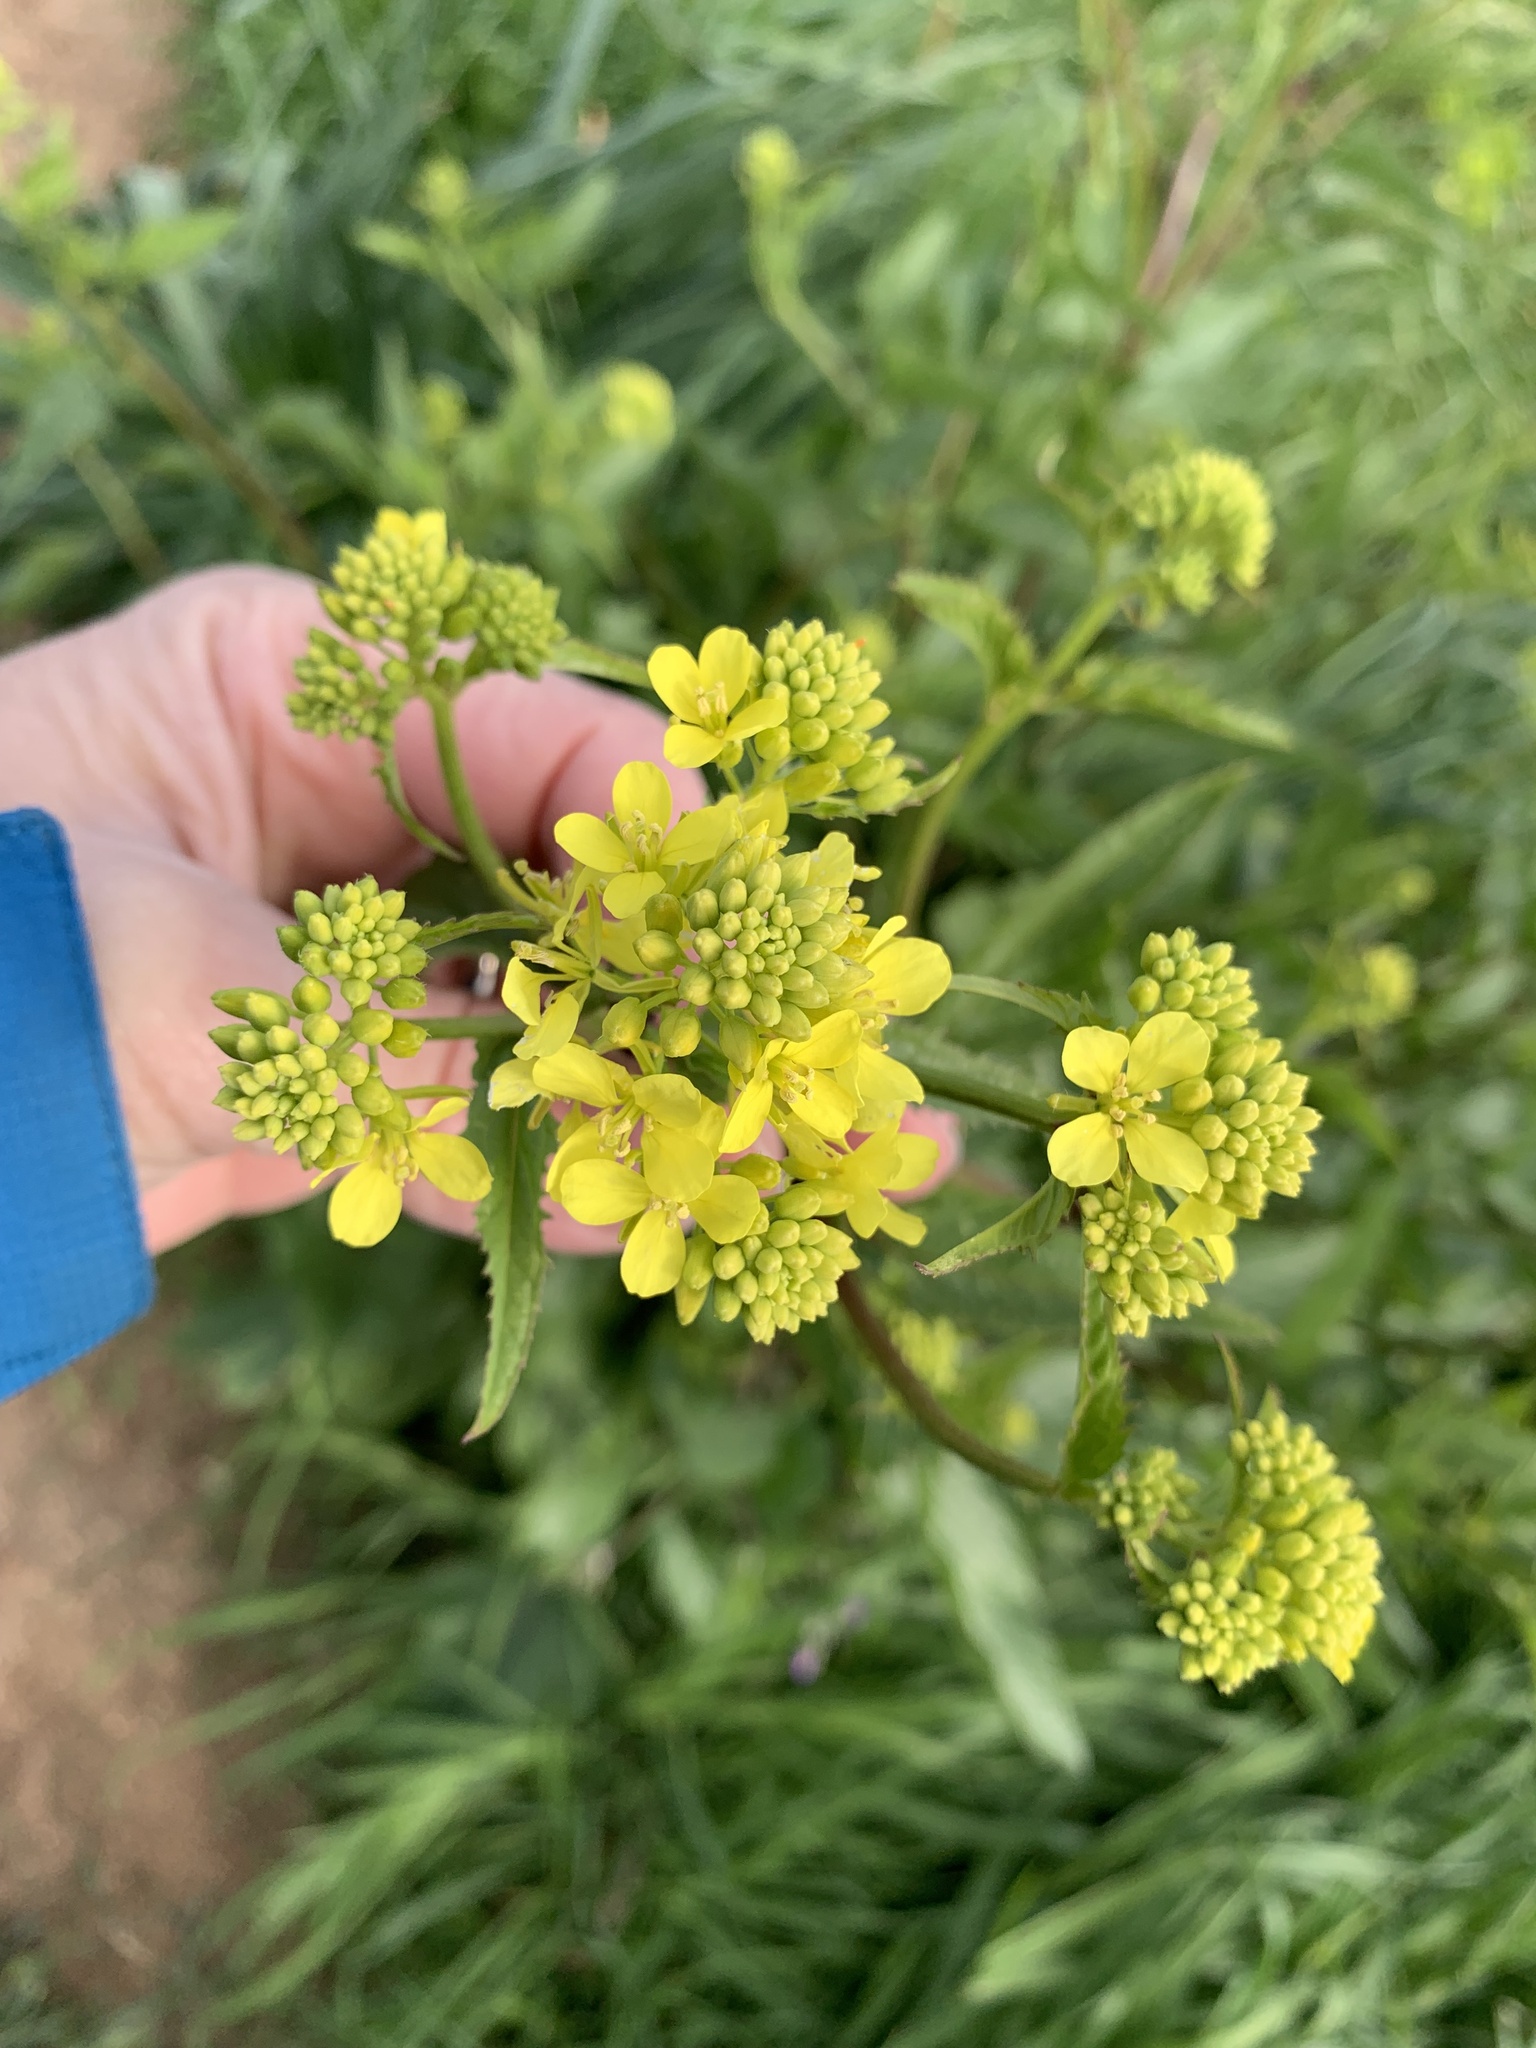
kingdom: Plantae
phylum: Tracheophyta
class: Magnoliopsida
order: Brassicales
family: Brassicaceae
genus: Sinapis
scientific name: Sinapis arvensis
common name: Charlock
